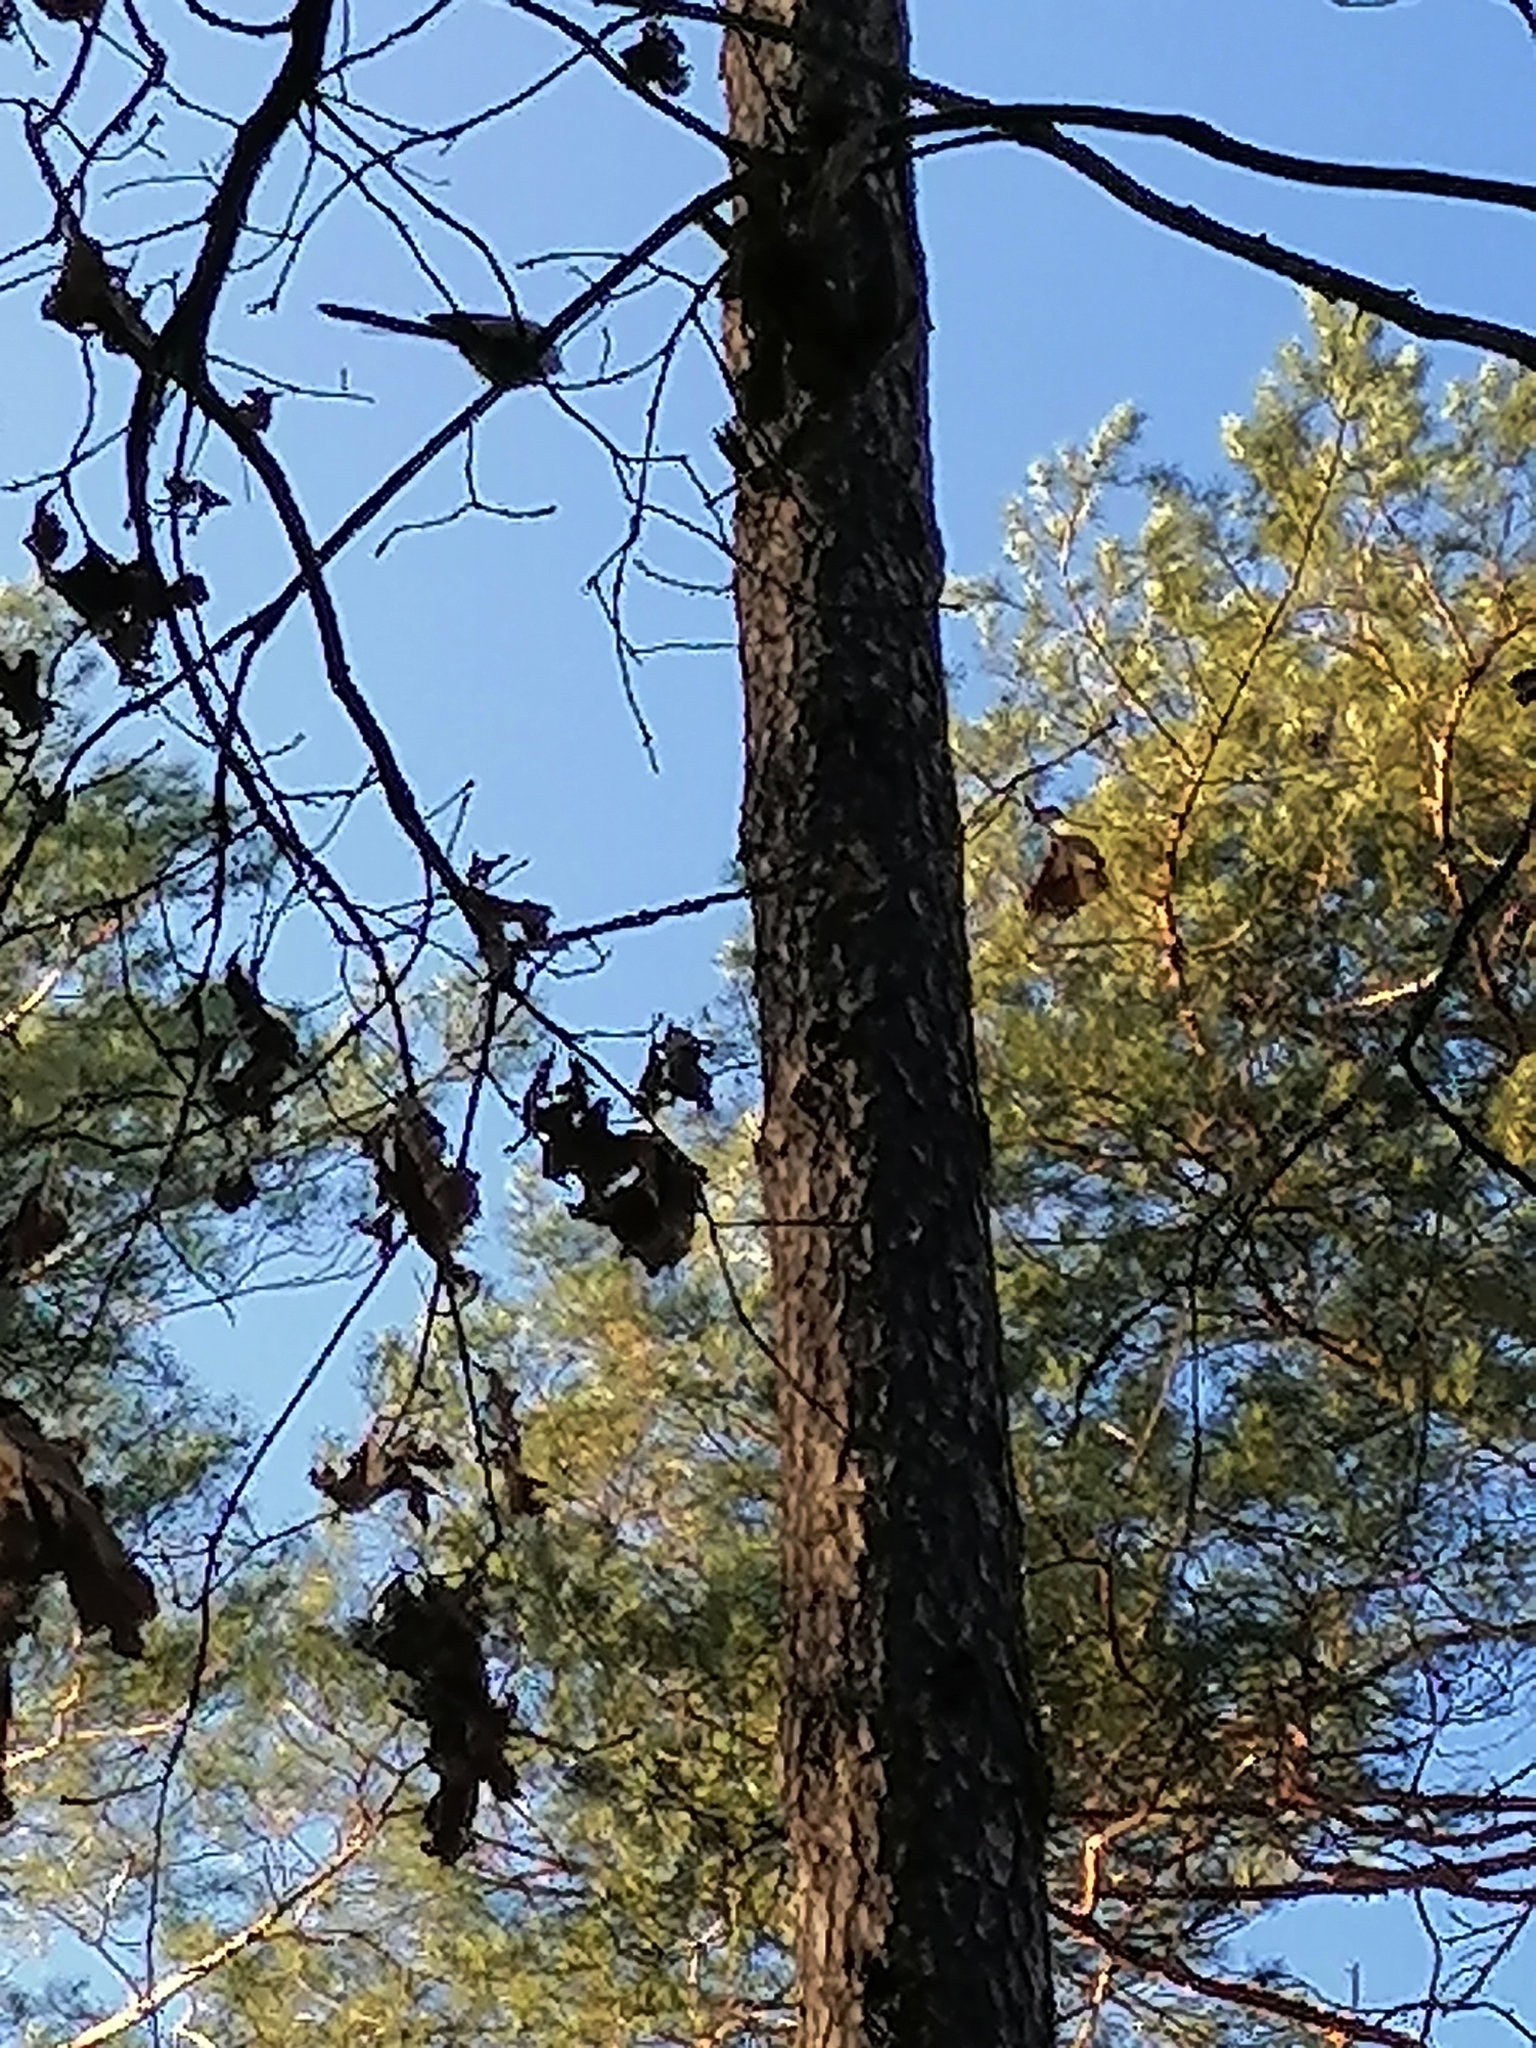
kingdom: Animalia
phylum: Chordata
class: Aves
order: Passeriformes
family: Aegithalidae
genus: Aegithalos
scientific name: Aegithalos caudatus
